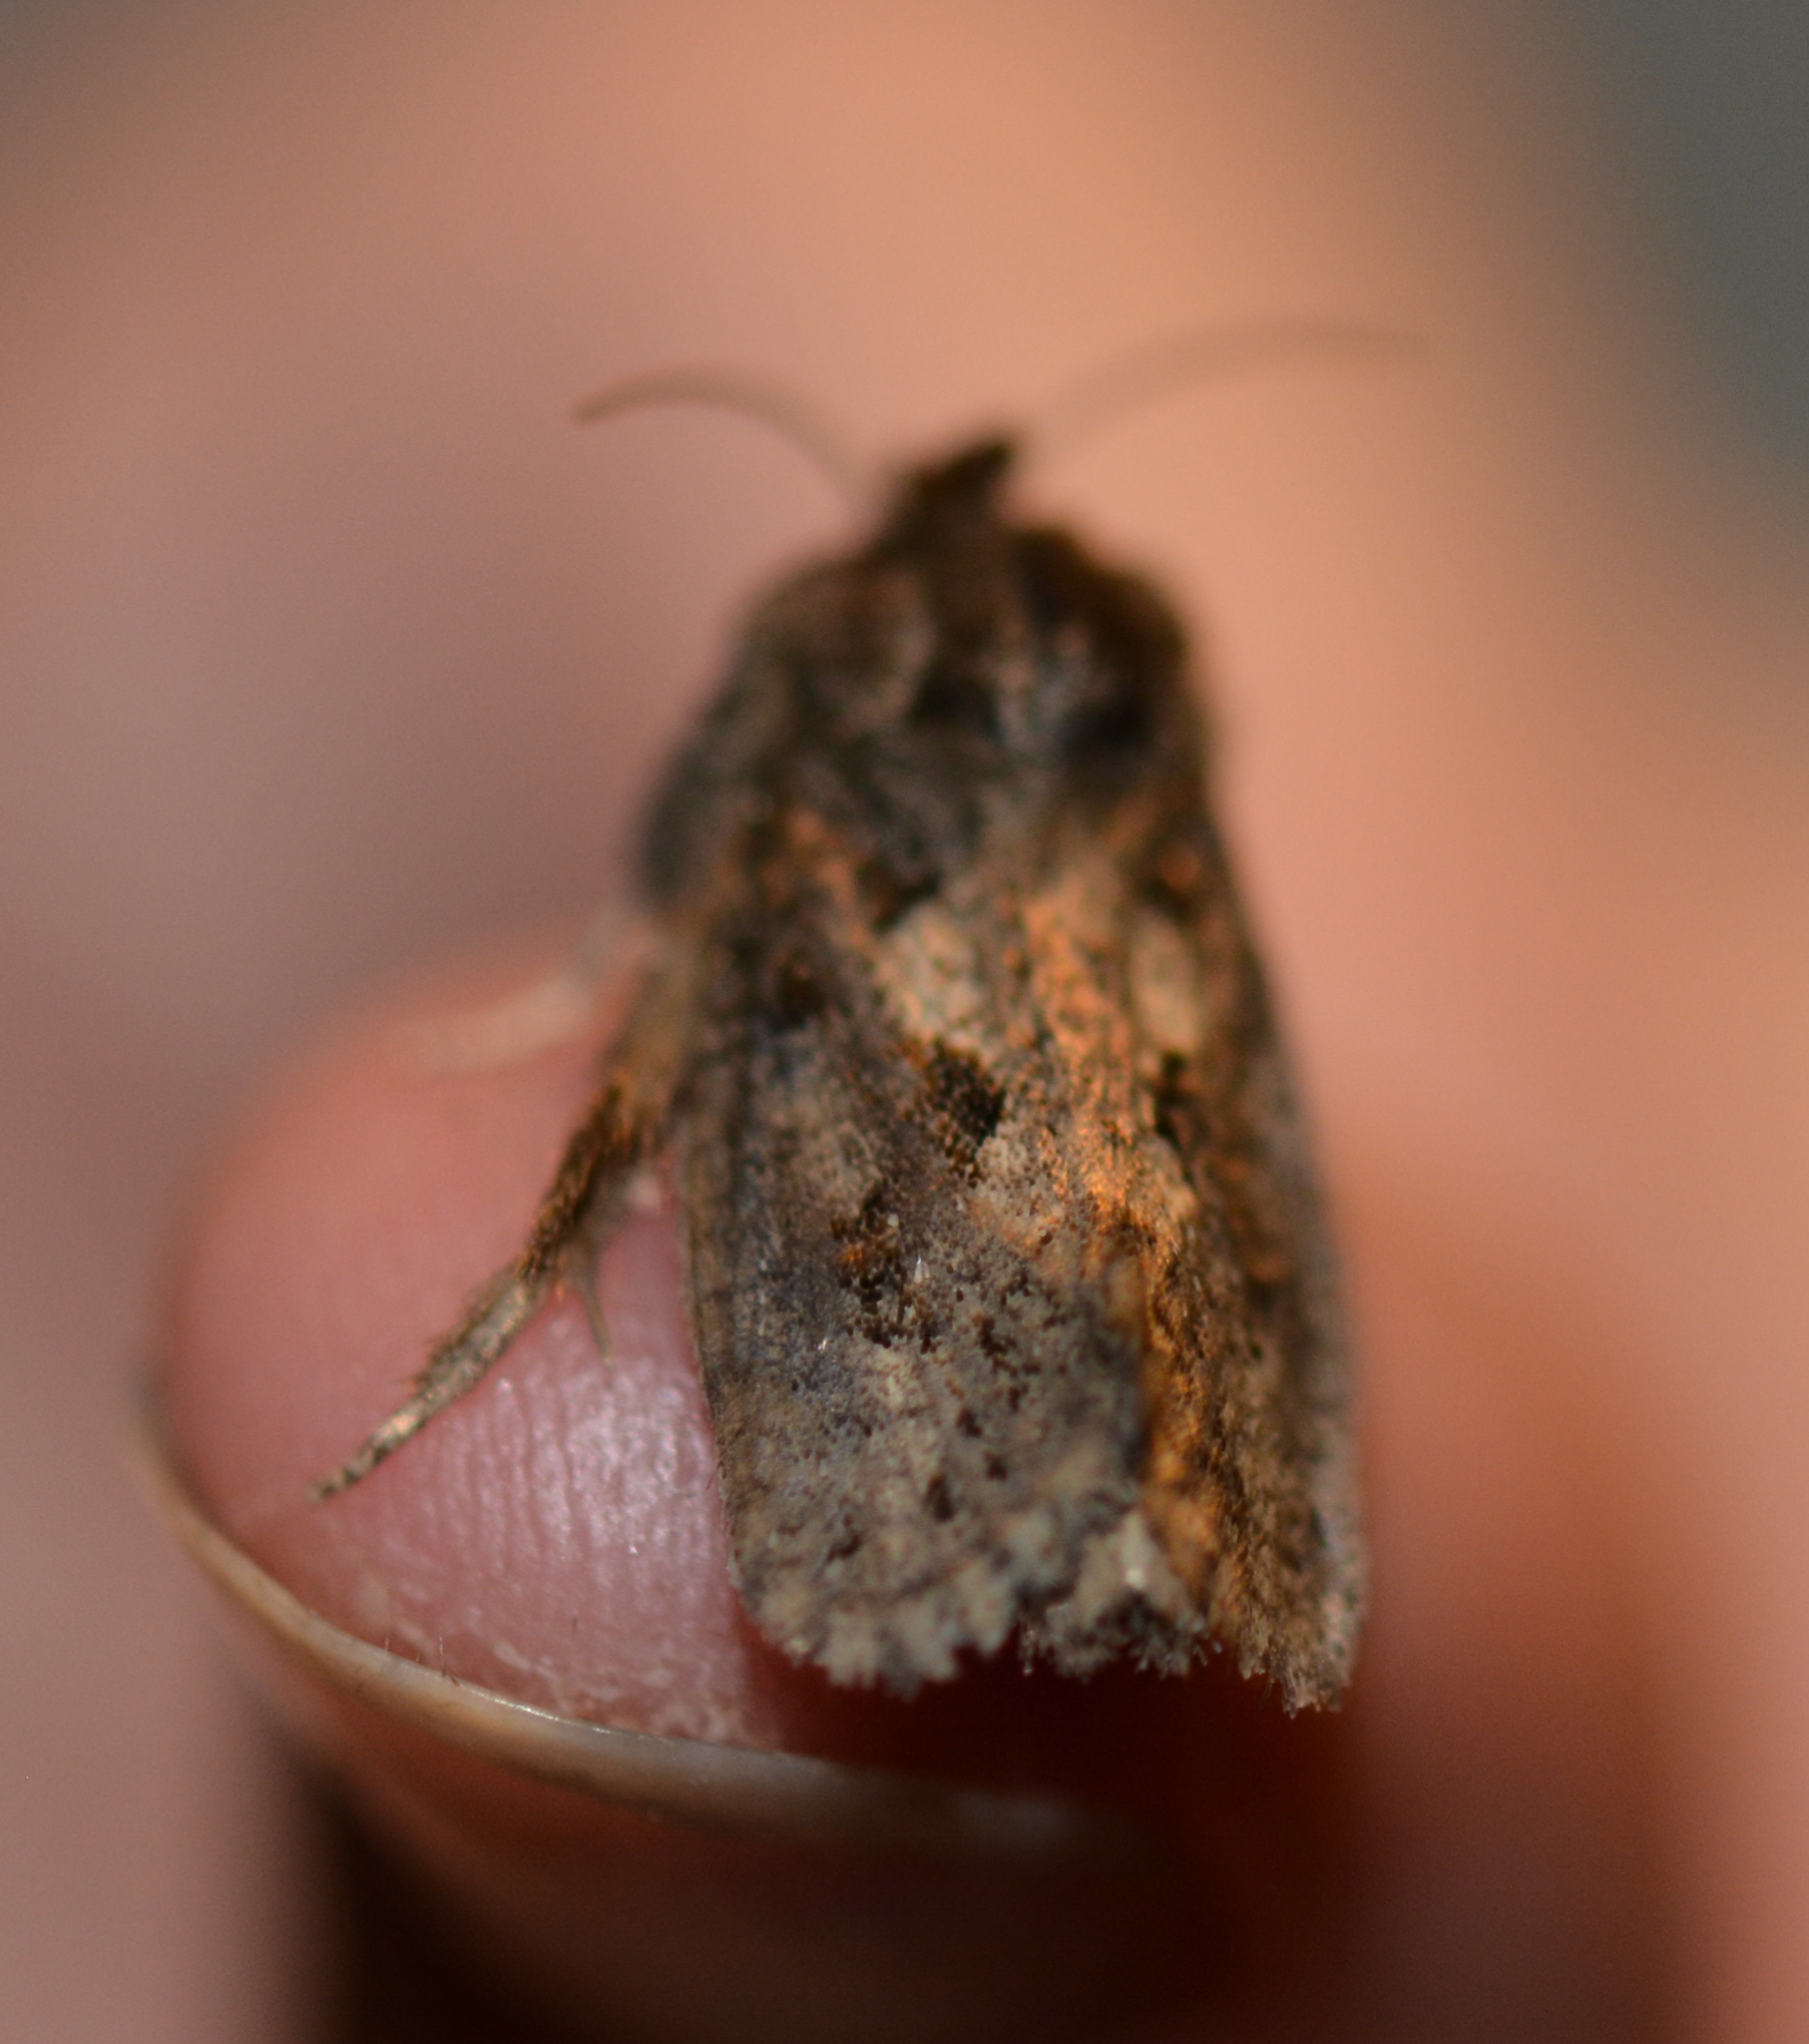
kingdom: Animalia
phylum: Arthropoda
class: Insecta
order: Lepidoptera
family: Tineidae
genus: Acrolophus
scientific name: Acrolophus texanella
